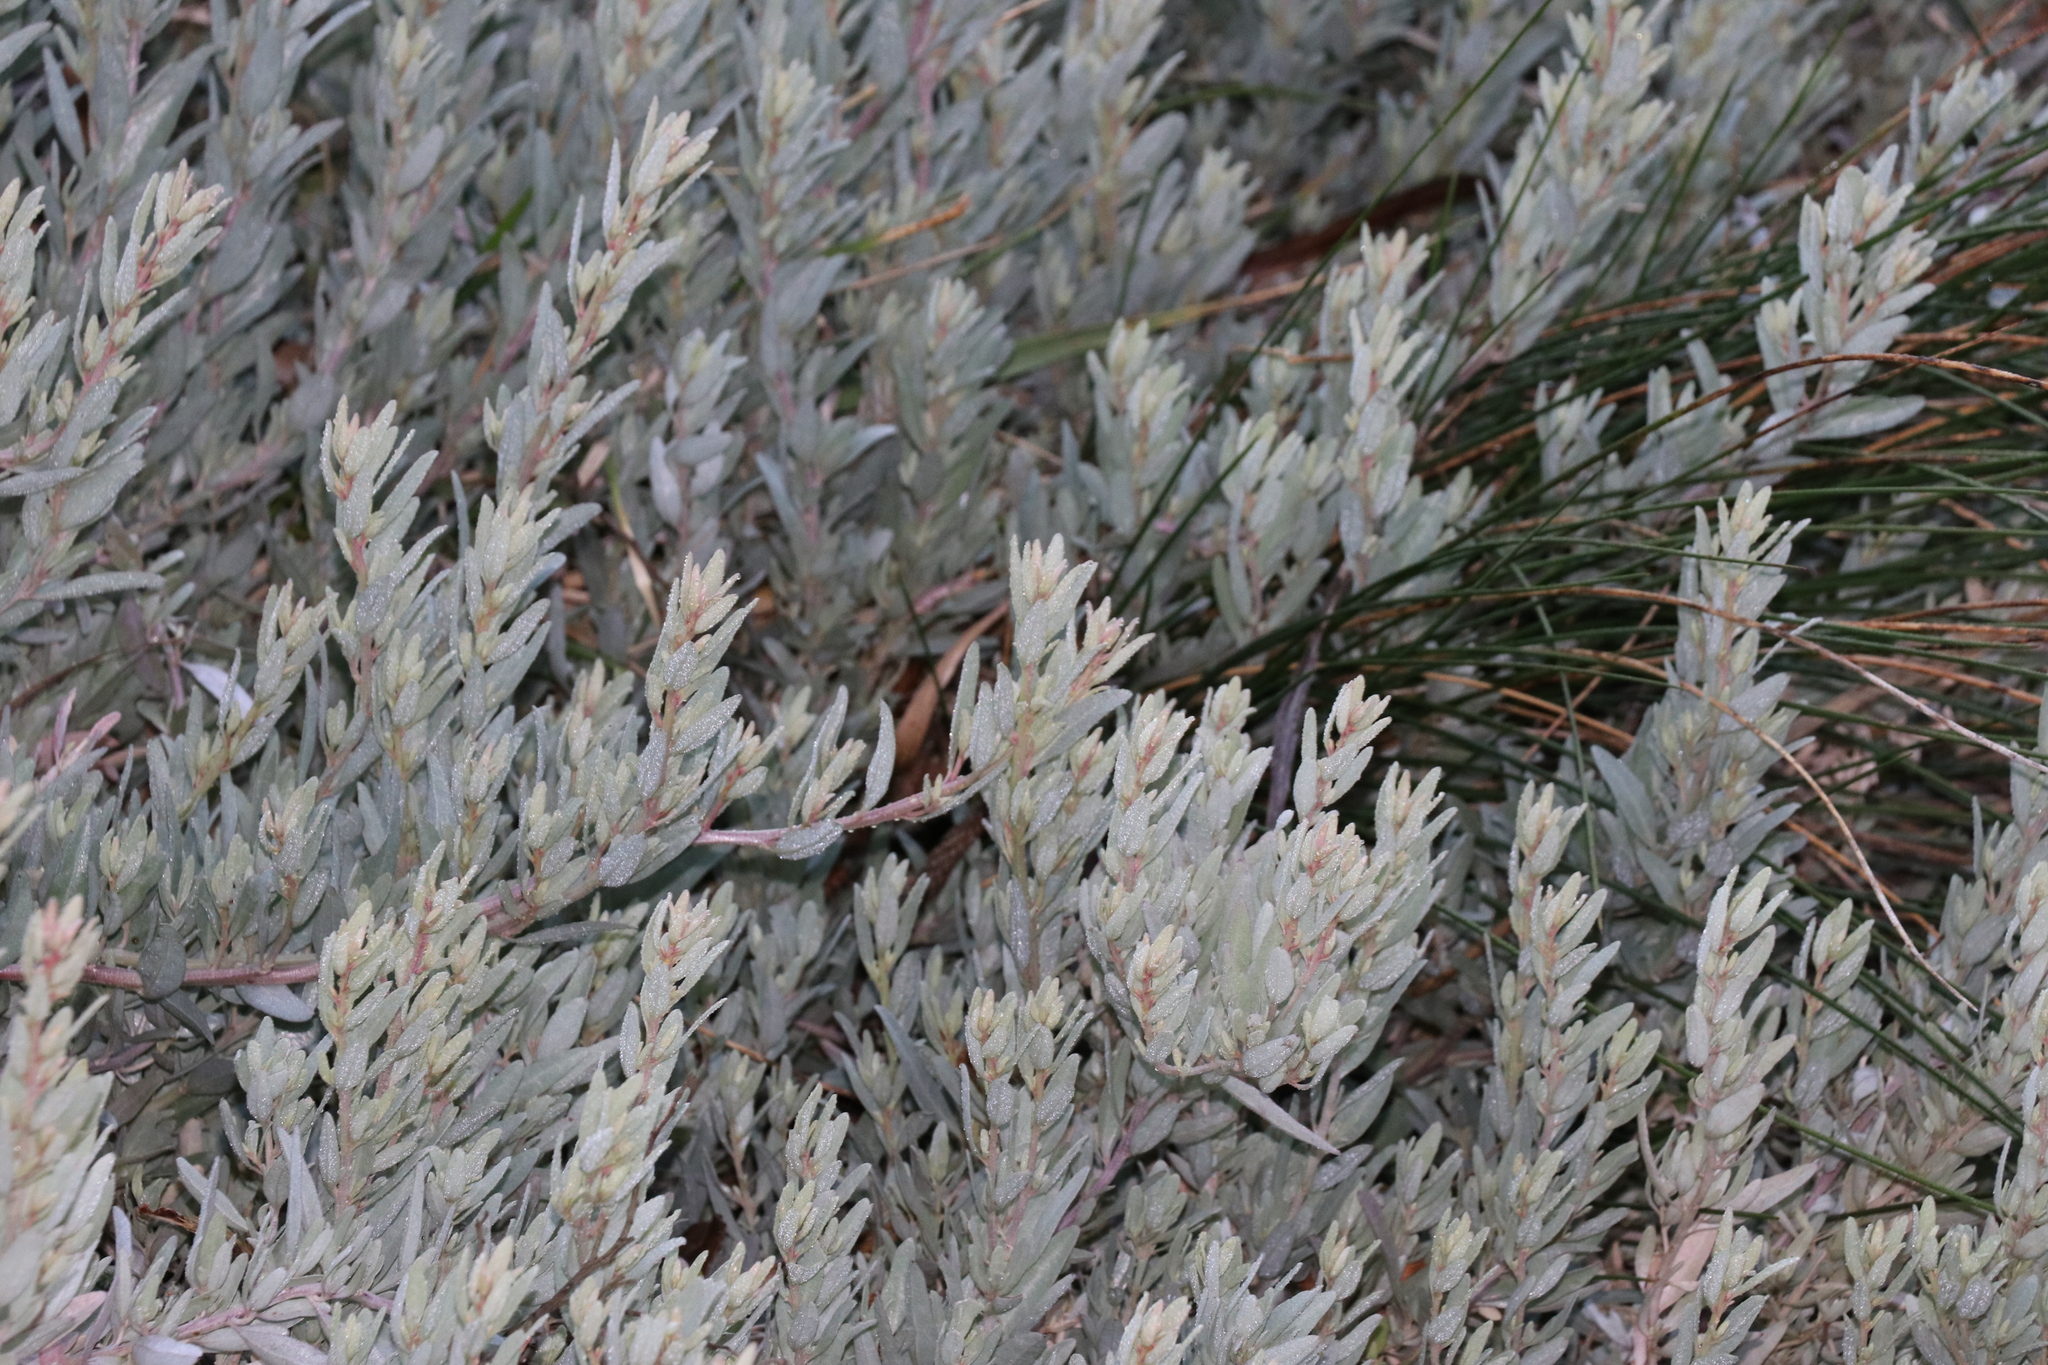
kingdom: Plantae
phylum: Tracheophyta
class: Magnoliopsida
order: Caryophyllales
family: Amaranthaceae
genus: Atriplex
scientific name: Atriplex cinerea
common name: Grey saltbush
